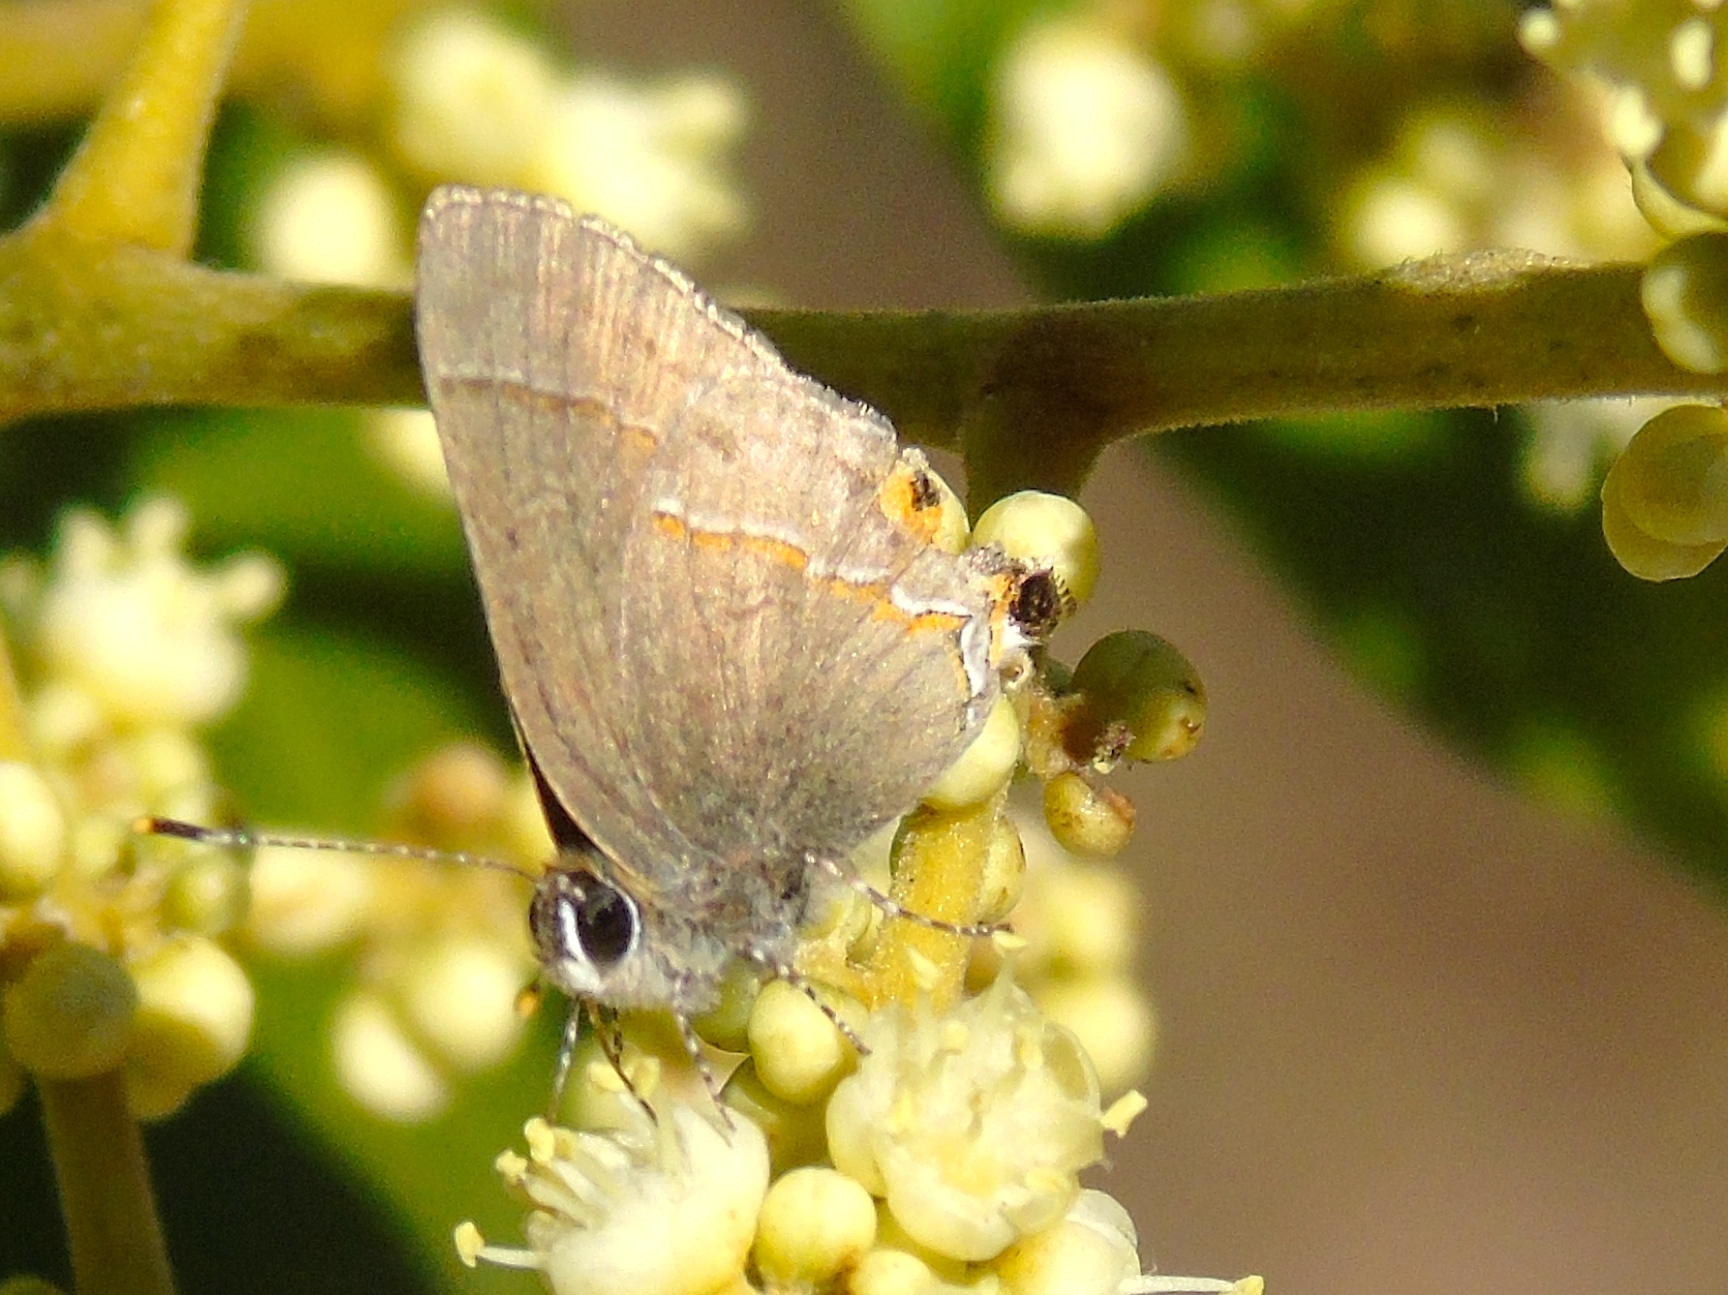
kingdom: Animalia
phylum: Arthropoda
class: Insecta
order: Lepidoptera
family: Lycaenidae
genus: Electrostrymon
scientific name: Electrostrymon endymion
